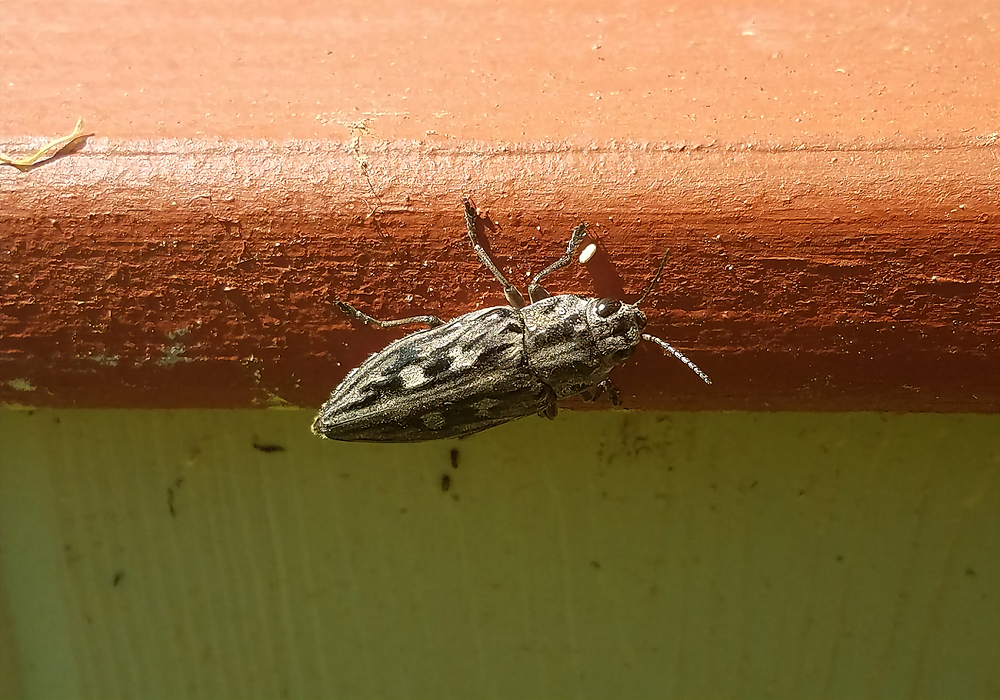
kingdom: Animalia
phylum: Arthropoda
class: Insecta
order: Coleoptera
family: Buprestidae
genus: Chalcophora
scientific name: Chalcophora virginiensis
